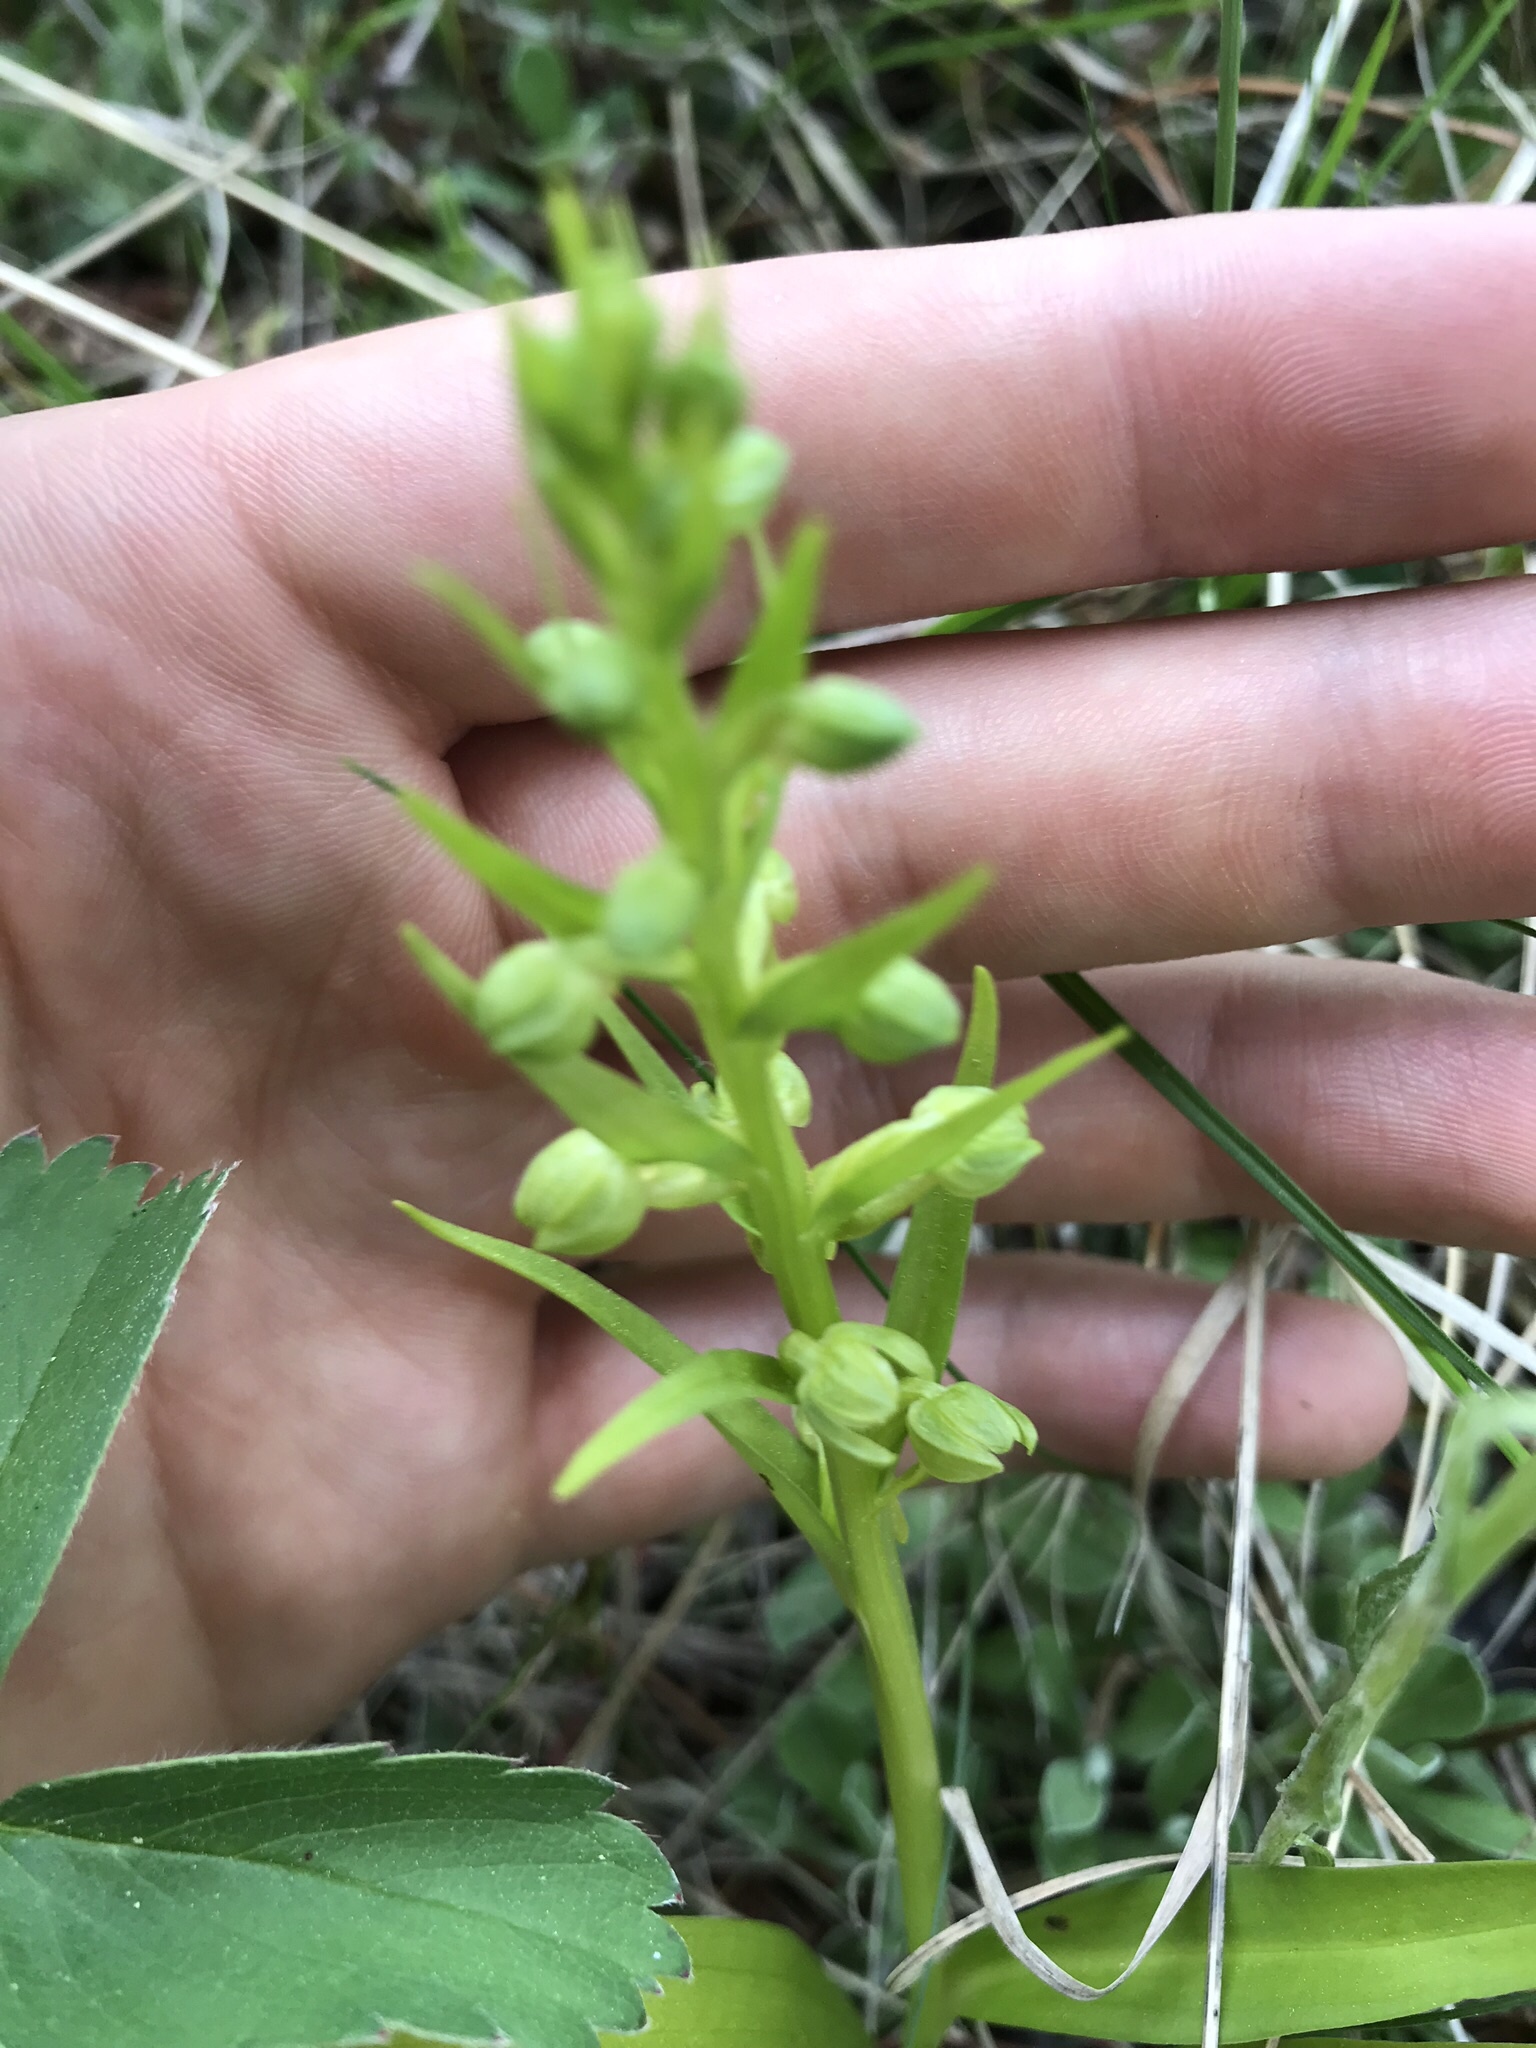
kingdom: Plantae
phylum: Tracheophyta
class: Liliopsida
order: Asparagales
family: Orchidaceae
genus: Dactylorhiza
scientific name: Dactylorhiza viridis
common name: Longbract frog orchid
